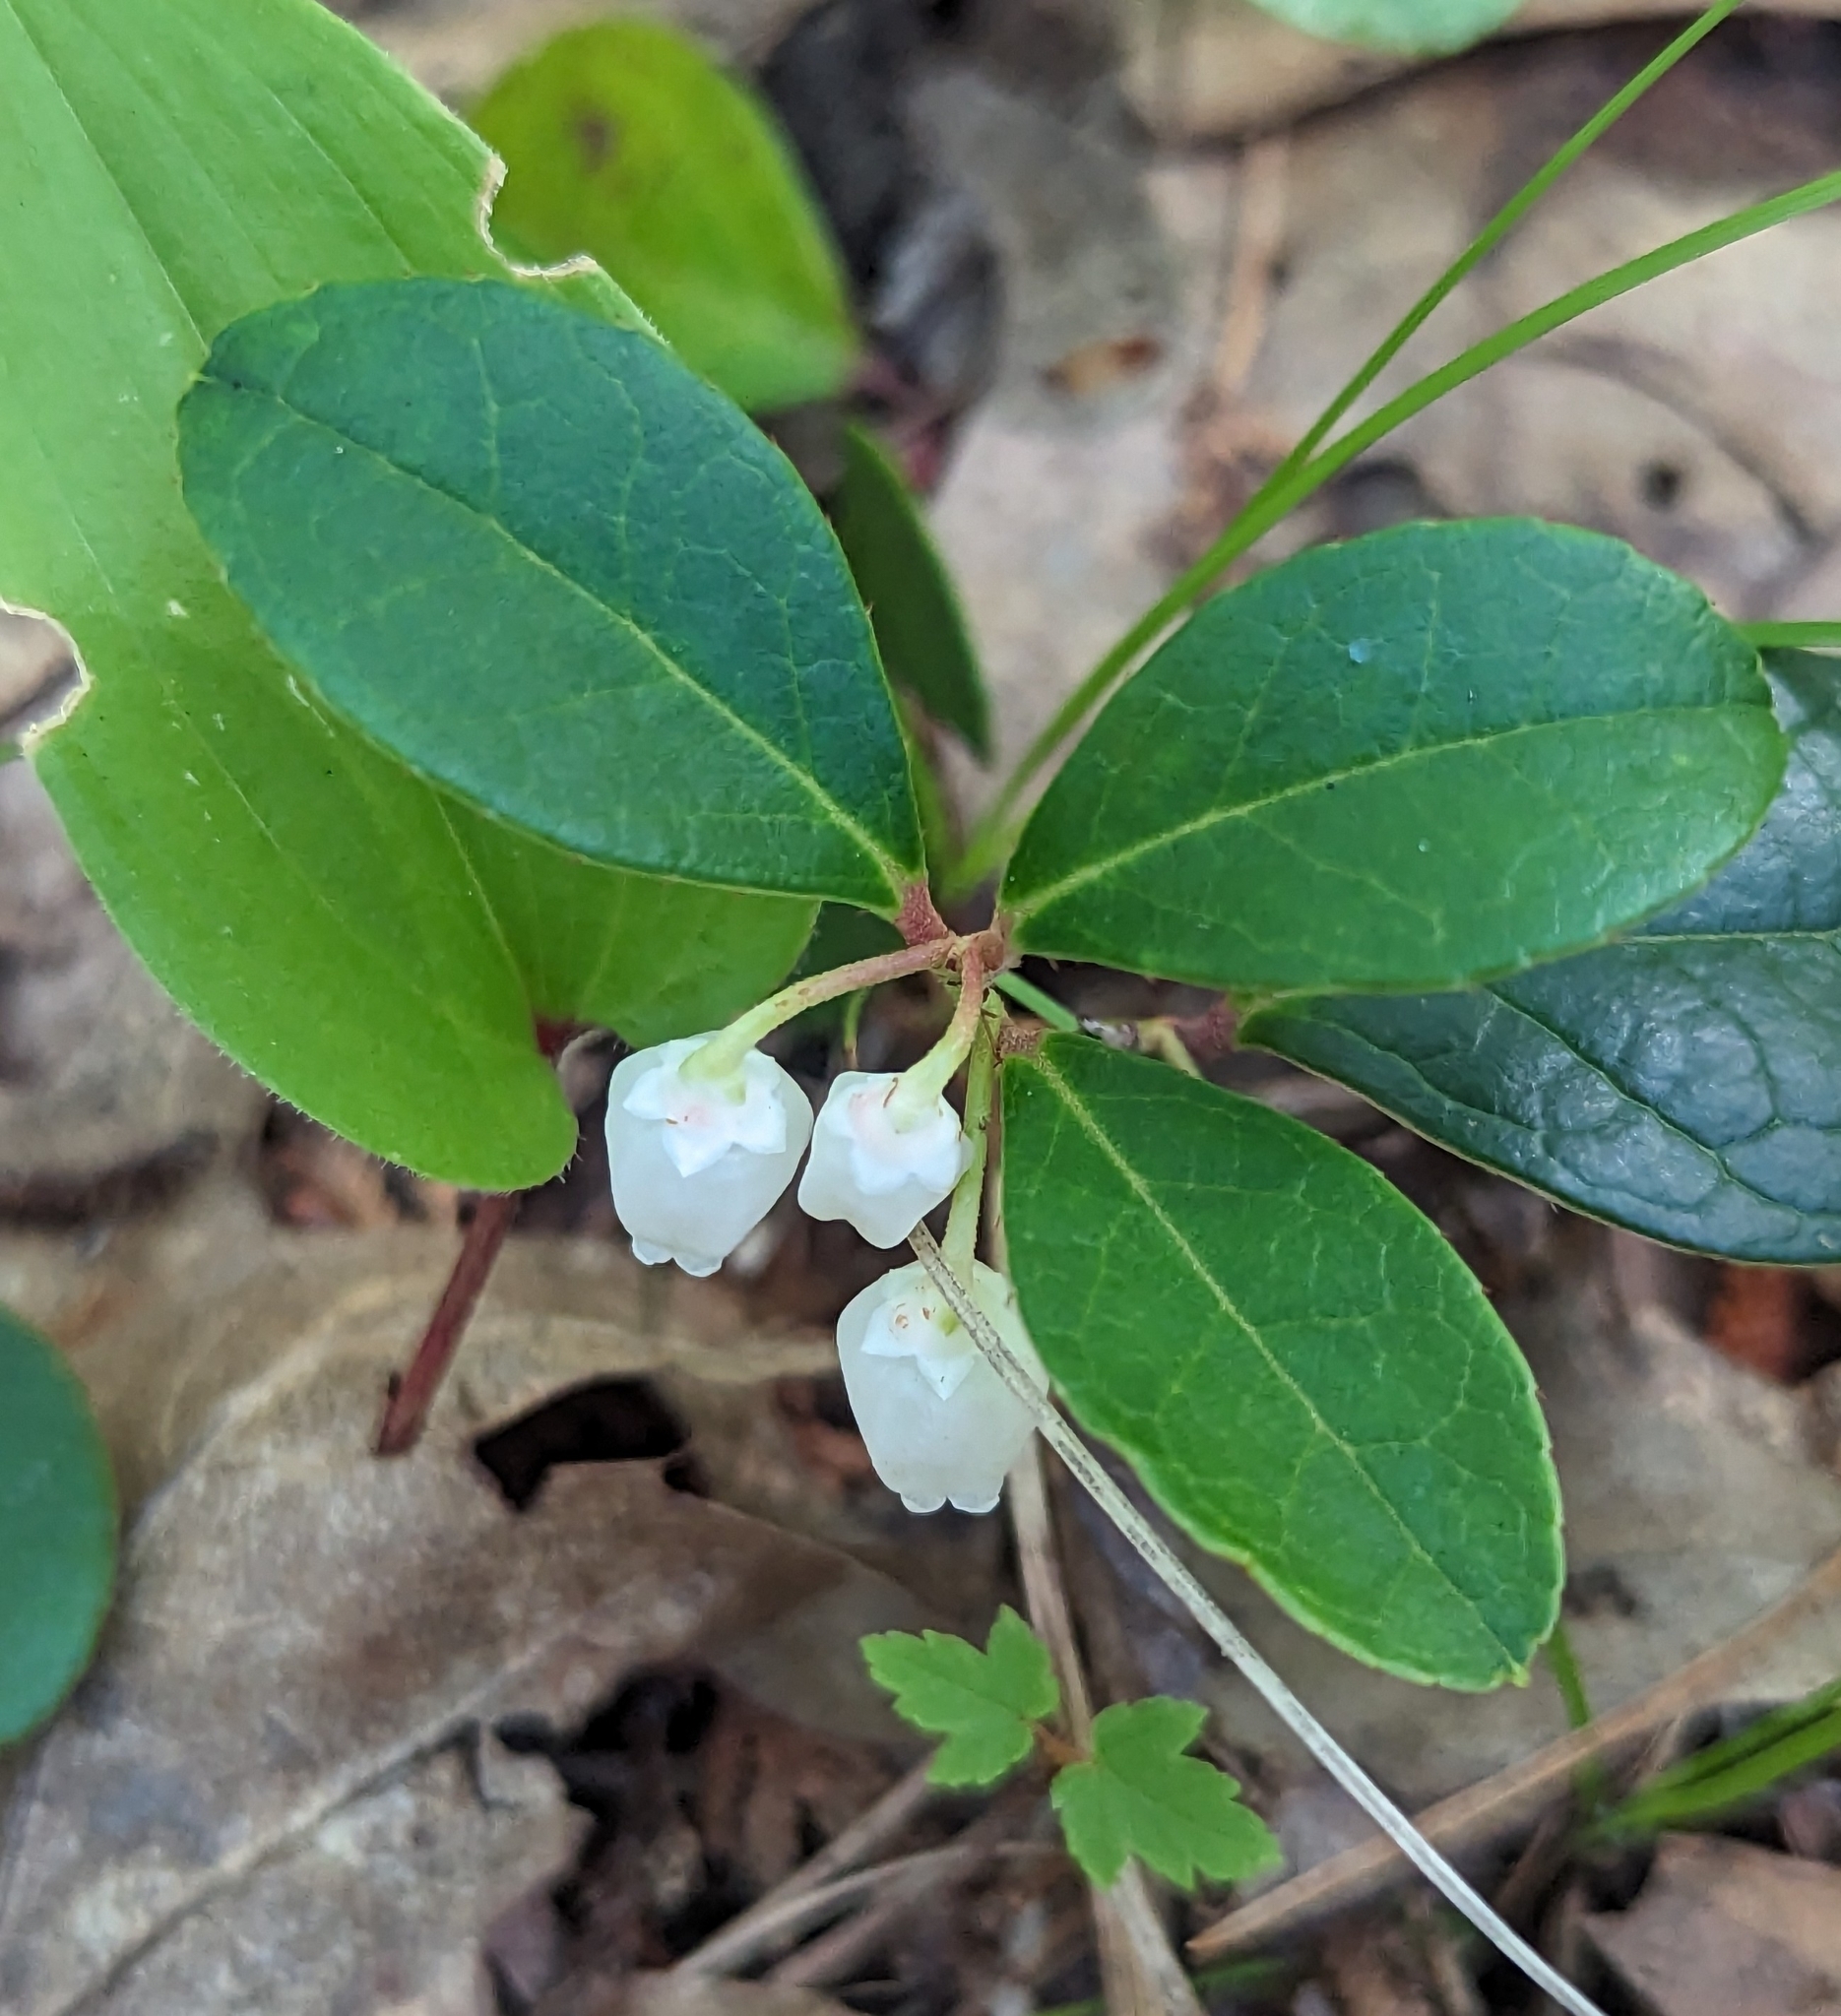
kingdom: Plantae
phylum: Tracheophyta
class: Magnoliopsida
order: Ericales
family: Ericaceae
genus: Gaultheria
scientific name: Gaultheria procumbens
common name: Checkerberry
